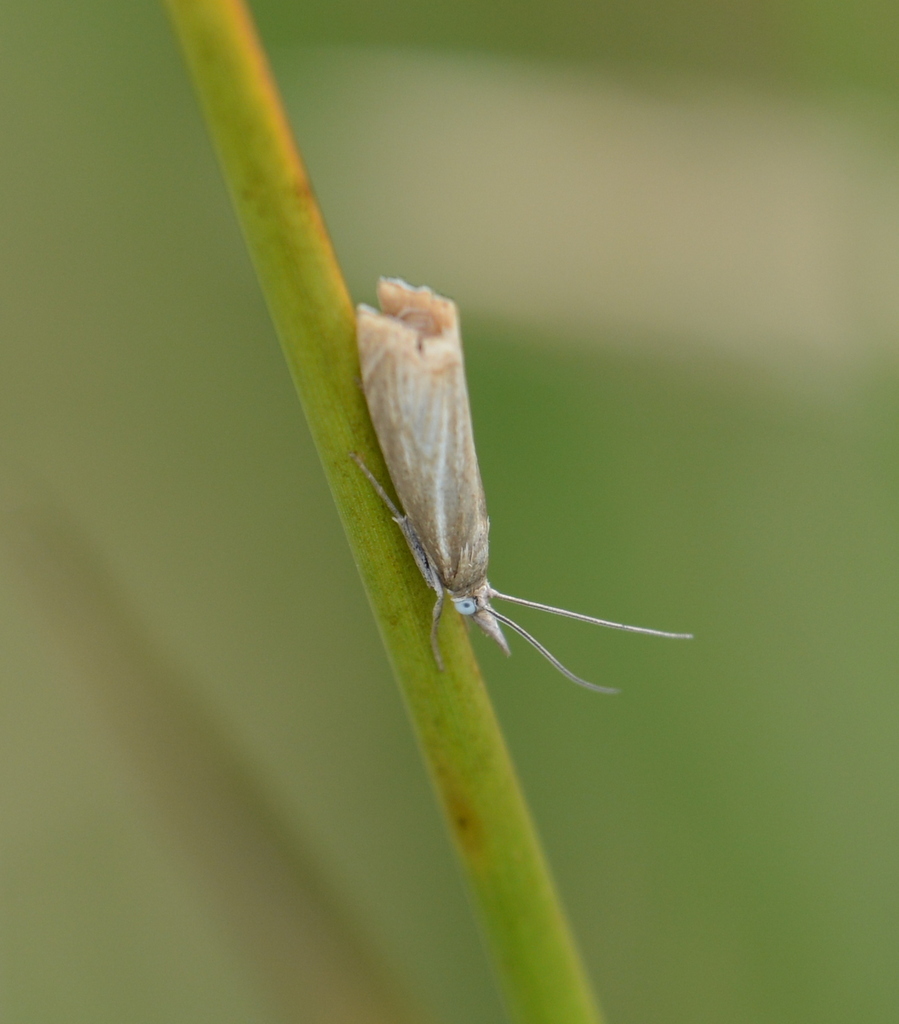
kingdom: Animalia
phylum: Arthropoda
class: Insecta
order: Lepidoptera
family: Crambidae
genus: Chrysoteuchia
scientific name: Chrysoteuchia culmella
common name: Garden grass-veneer
